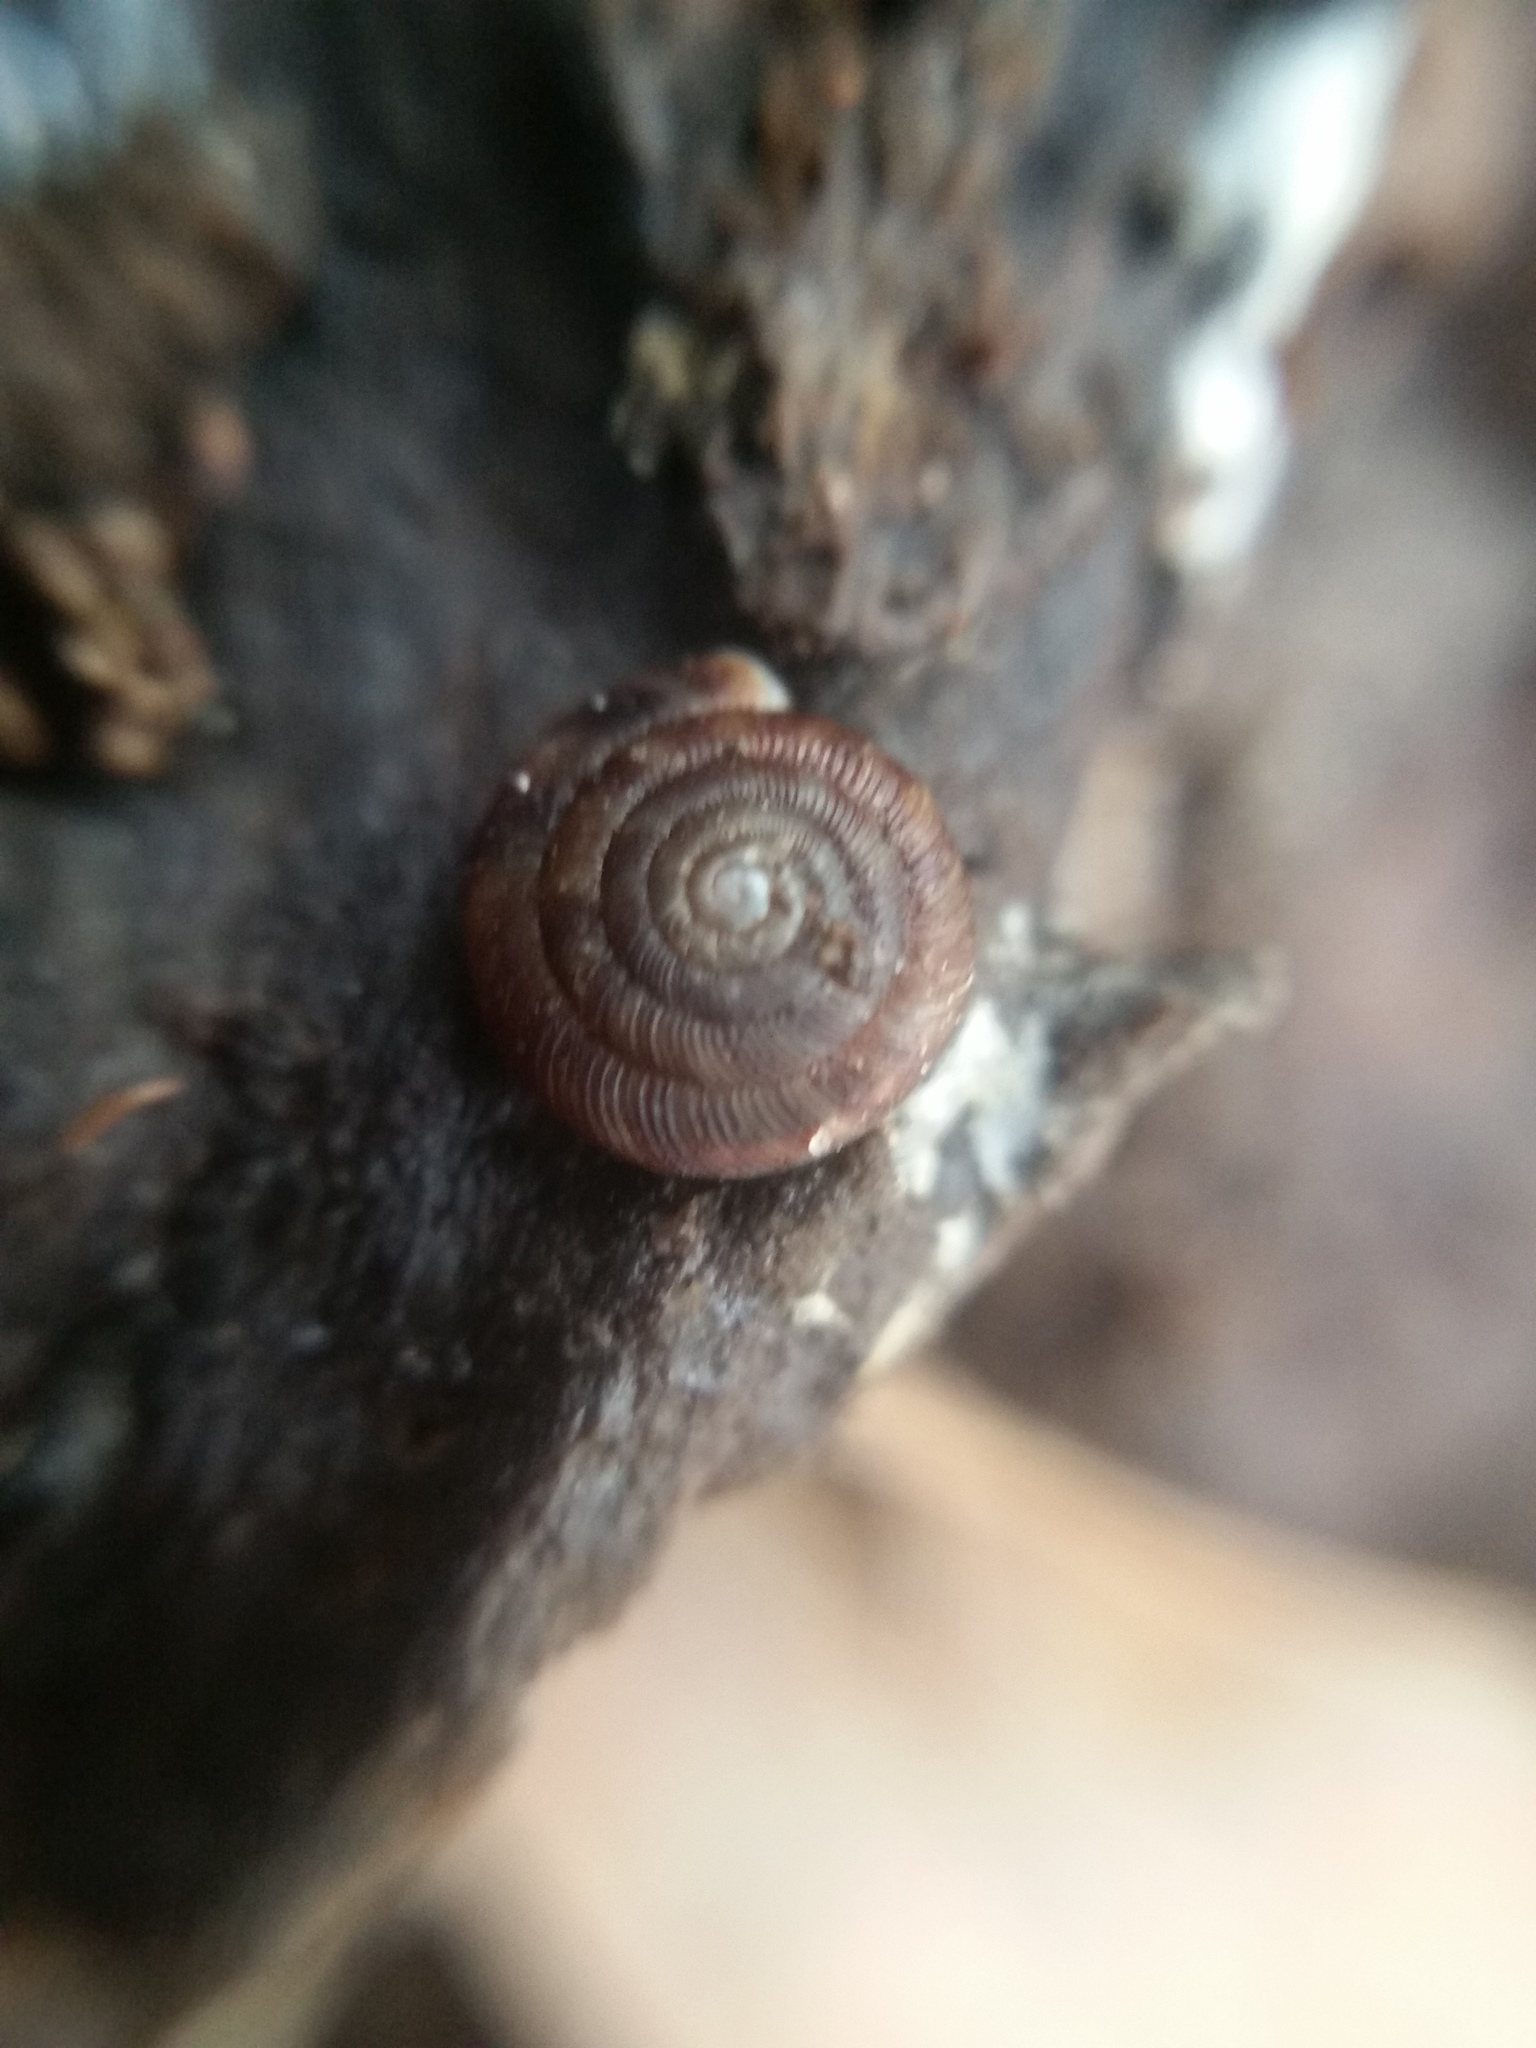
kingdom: Animalia
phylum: Mollusca
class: Gastropoda
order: Stylommatophora
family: Discidae
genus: Discus
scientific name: Discus rotundatus
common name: Rounded snail
